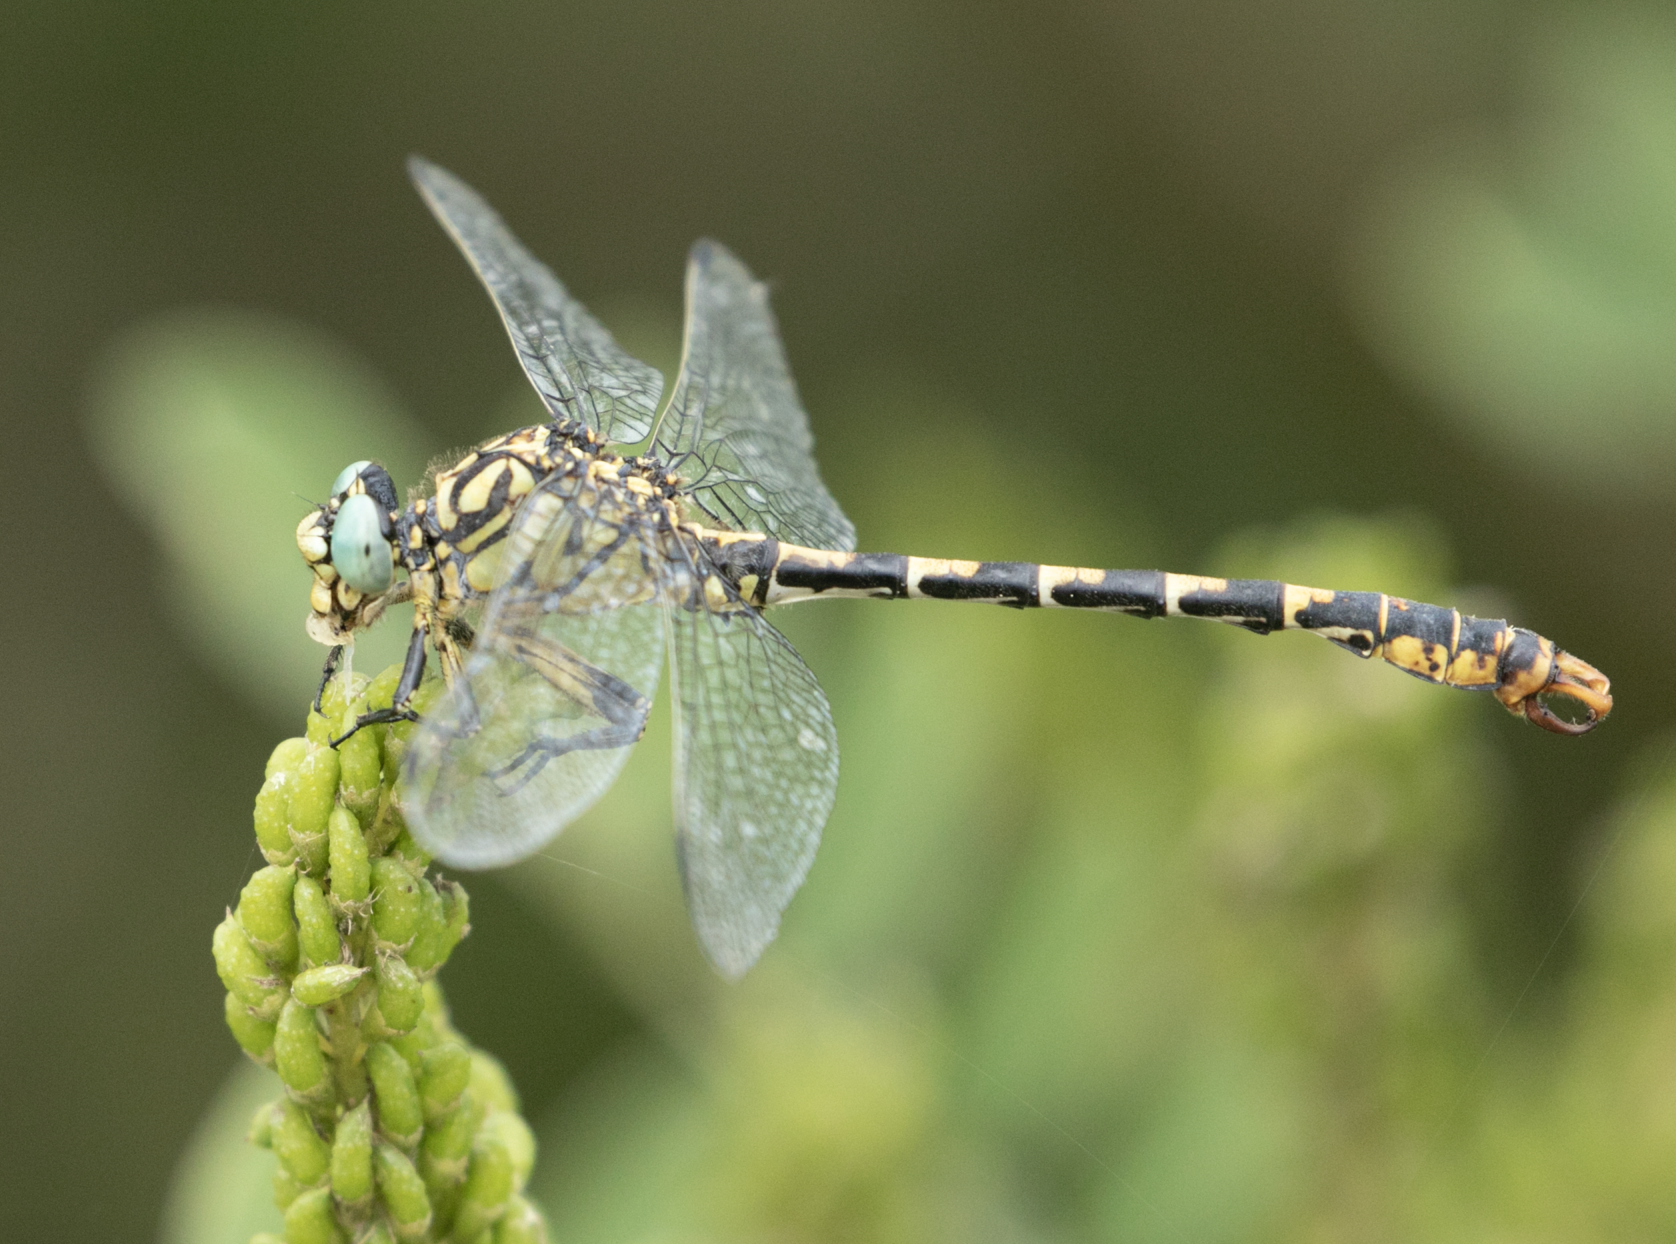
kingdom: Animalia
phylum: Arthropoda
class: Insecta
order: Odonata
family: Gomphidae
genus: Onychogomphus
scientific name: Onychogomphus forcipatus
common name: Small pincertail
